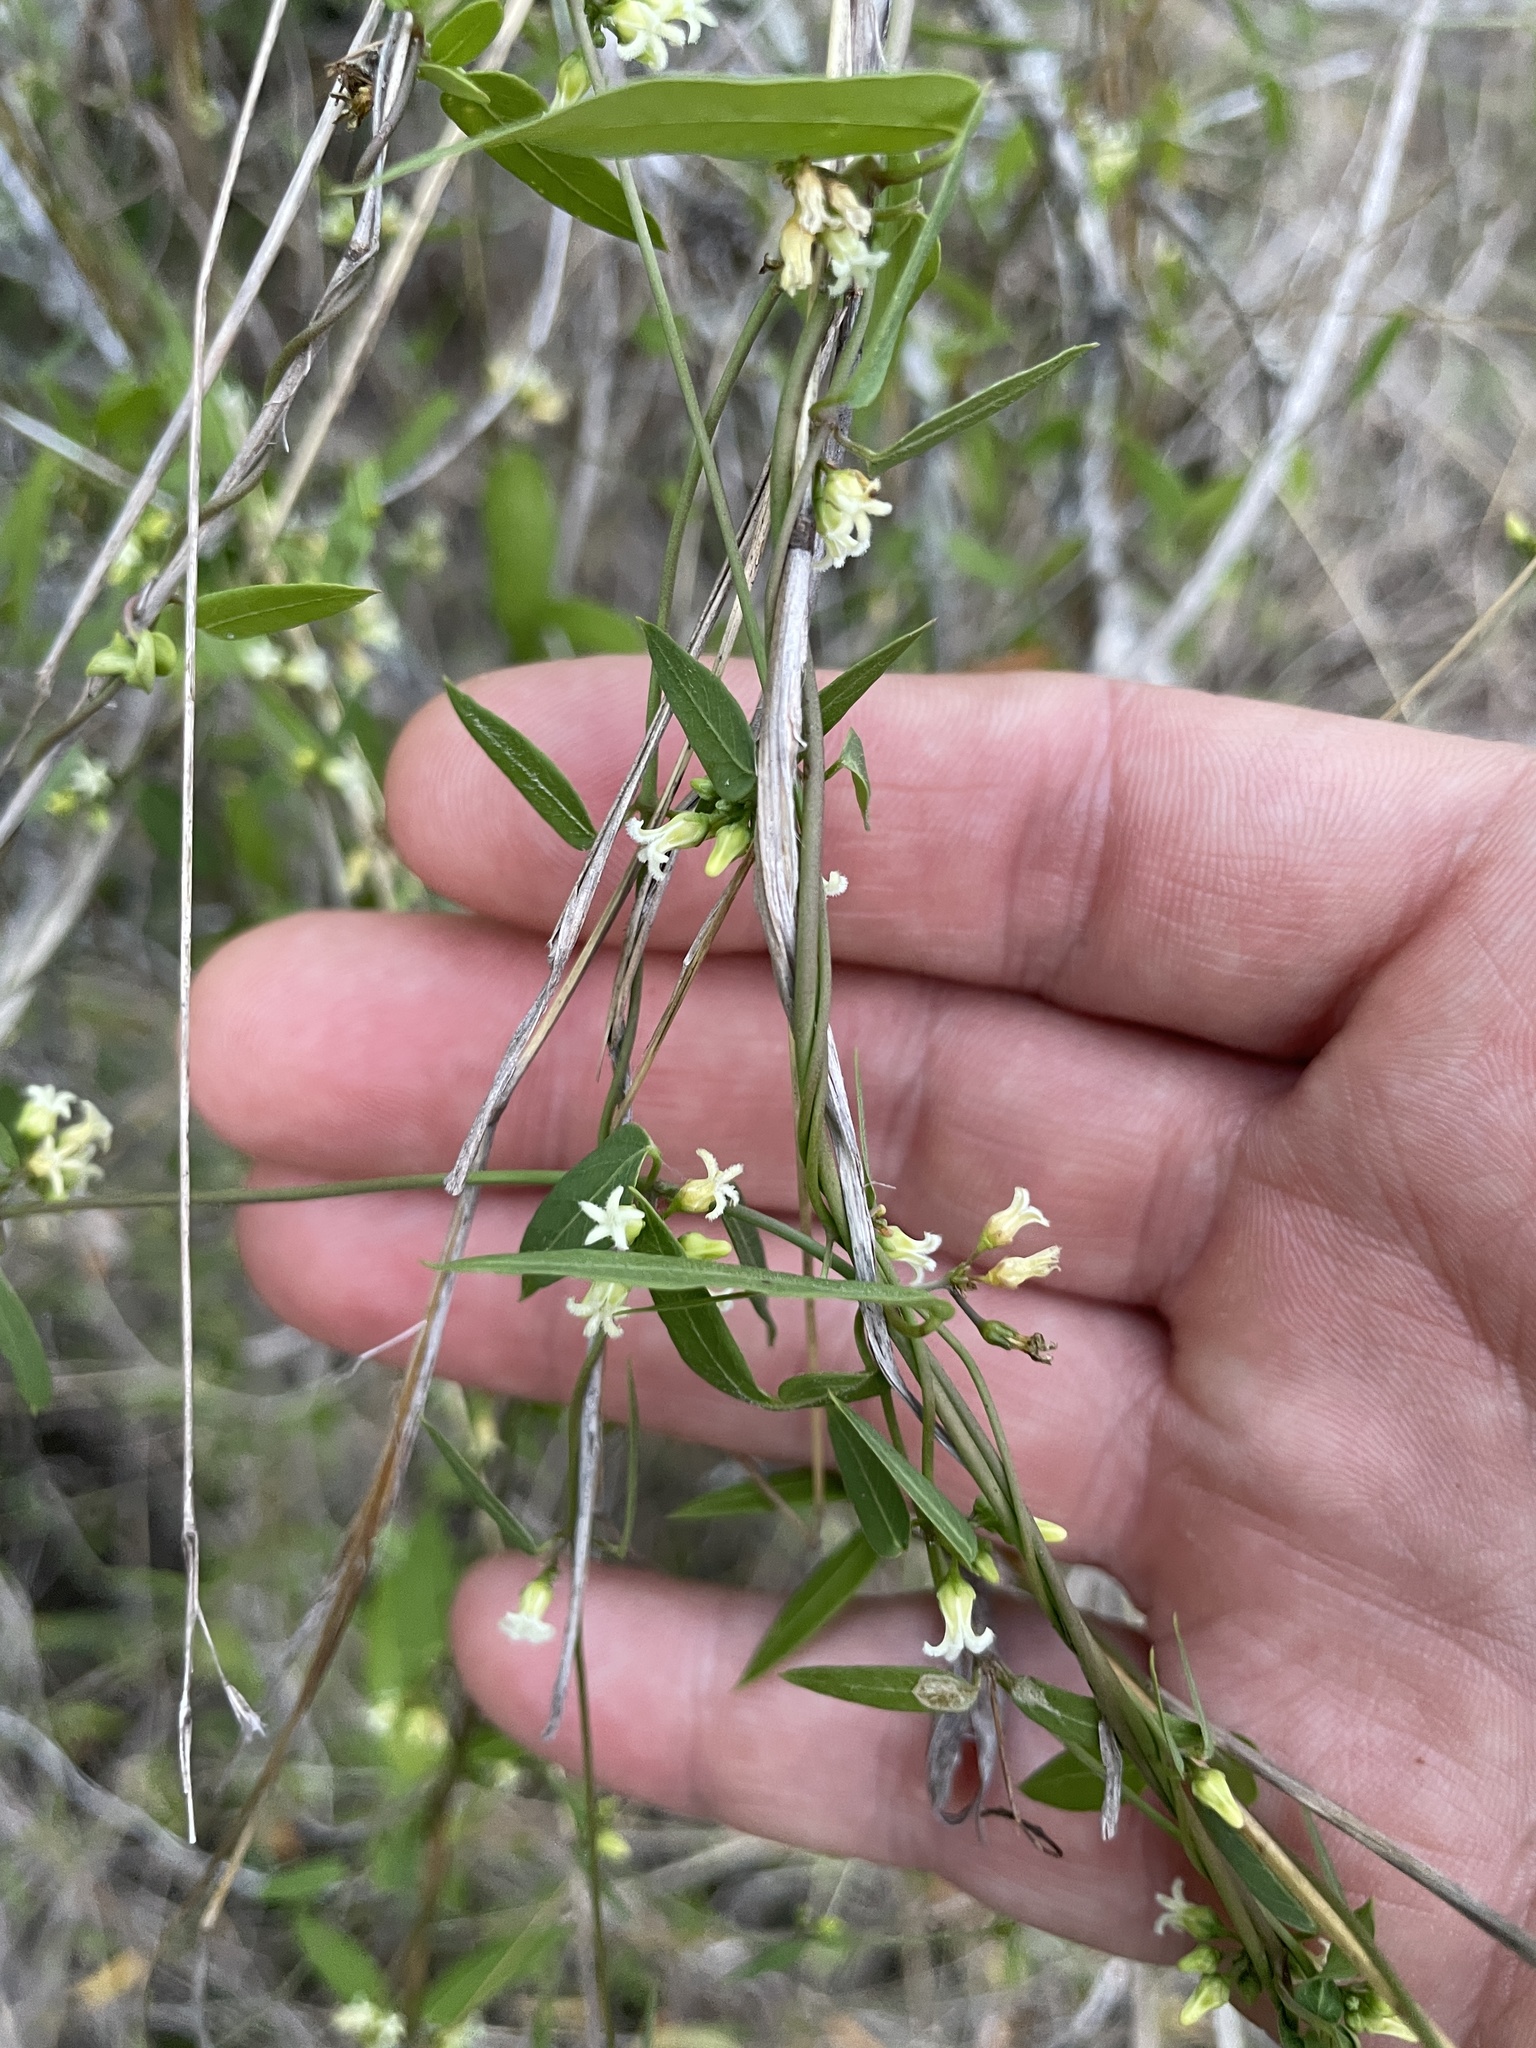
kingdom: Plantae
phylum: Tracheophyta
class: Magnoliopsida
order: Gentianales
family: Apocynaceae
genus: Metastelma
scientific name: Metastelma barbigerum
